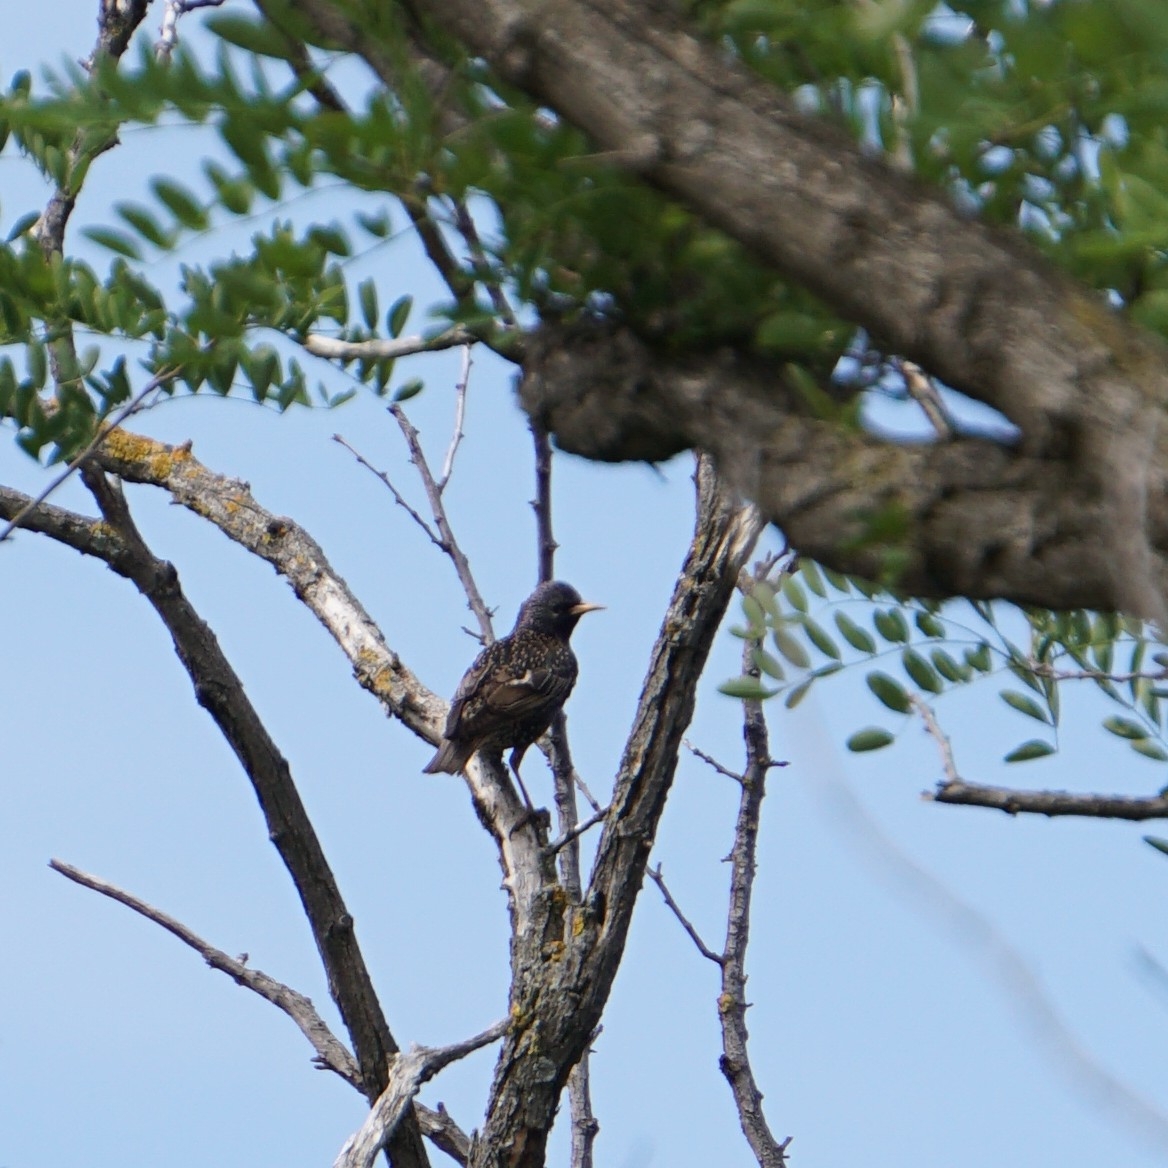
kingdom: Animalia
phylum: Chordata
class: Aves
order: Passeriformes
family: Sturnidae
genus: Sturnus
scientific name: Sturnus vulgaris
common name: Common starling
